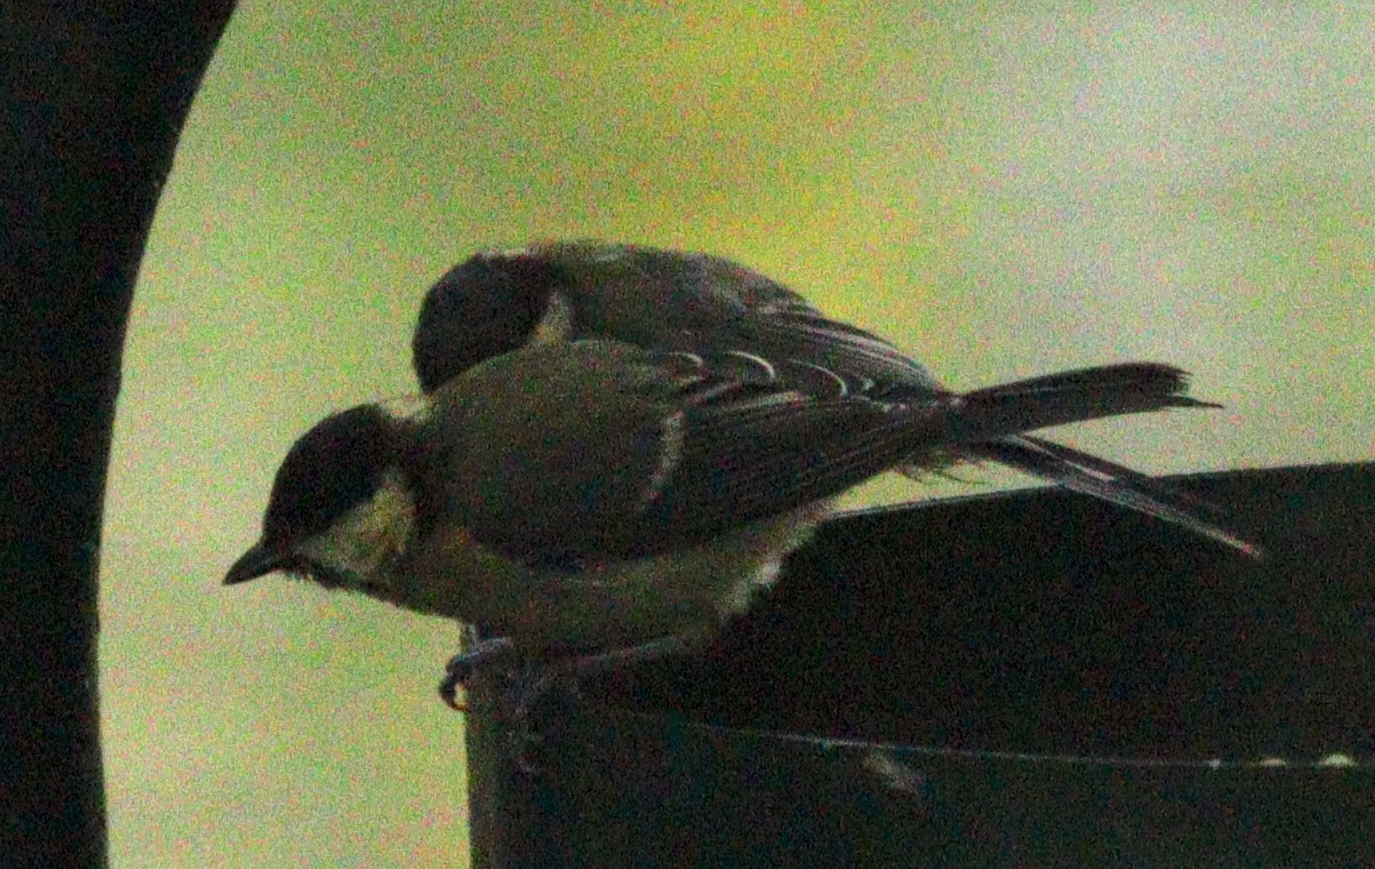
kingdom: Animalia
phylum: Chordata
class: Aves
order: Passeriformes
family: Paridae
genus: Parus
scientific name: Parus major
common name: Great tit
